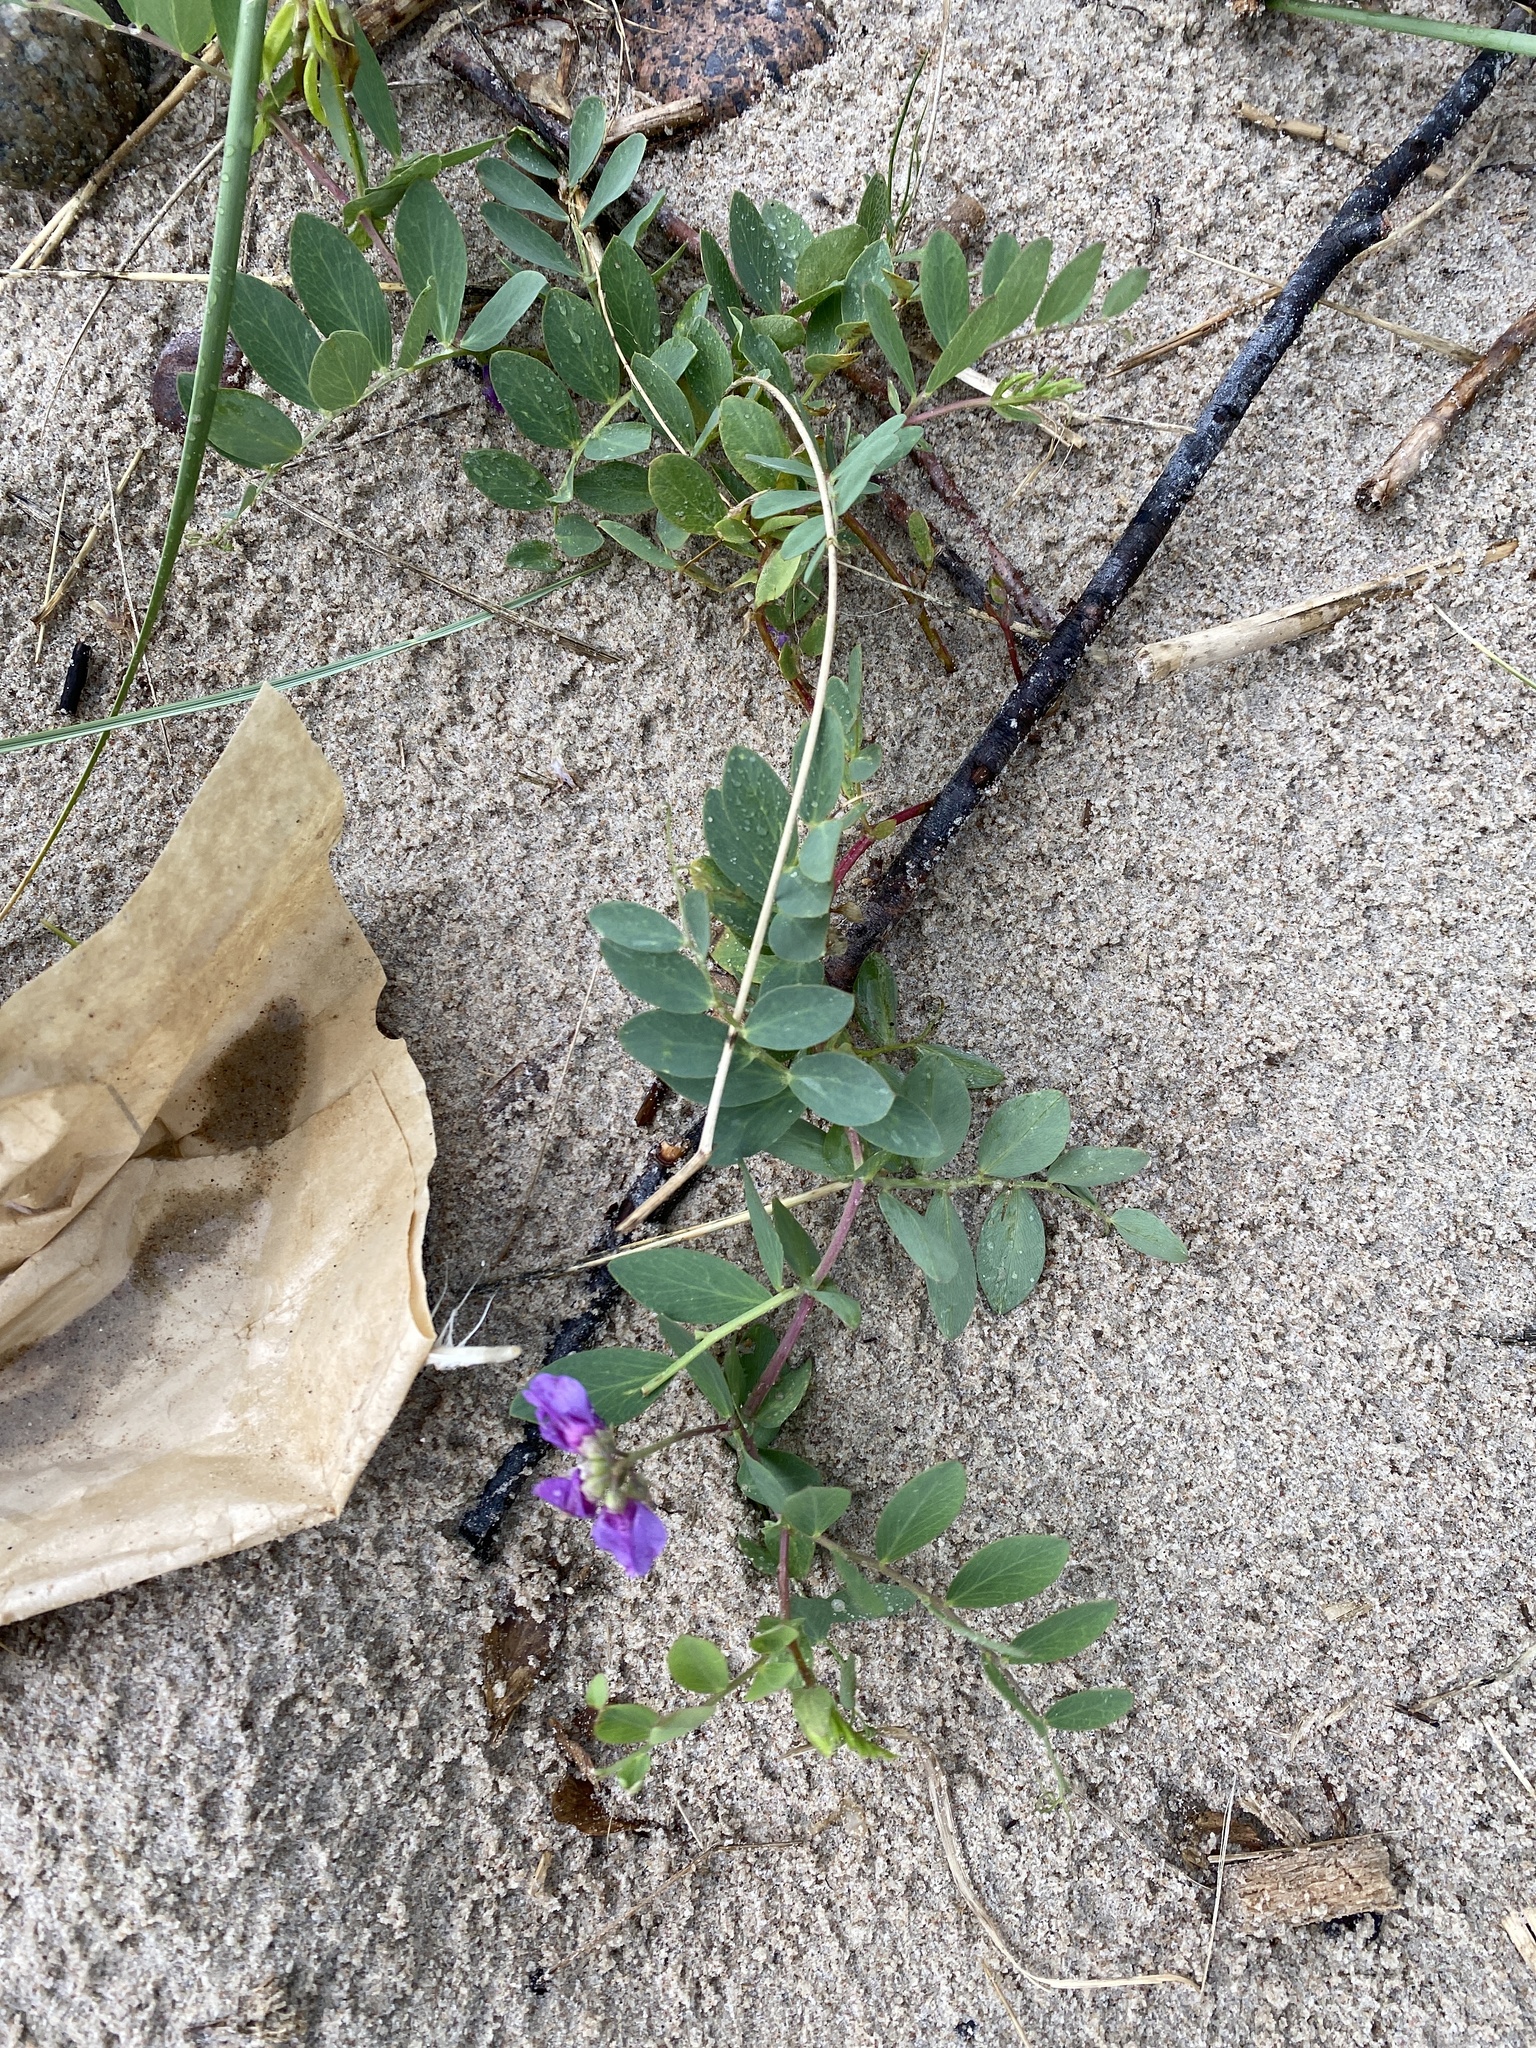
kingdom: Plantae
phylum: Tracheophyta
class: Magnoliopsida
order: Fabales
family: Fabaceae
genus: Lathyrus
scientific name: Lathyrus japonicus
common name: Sea pea
